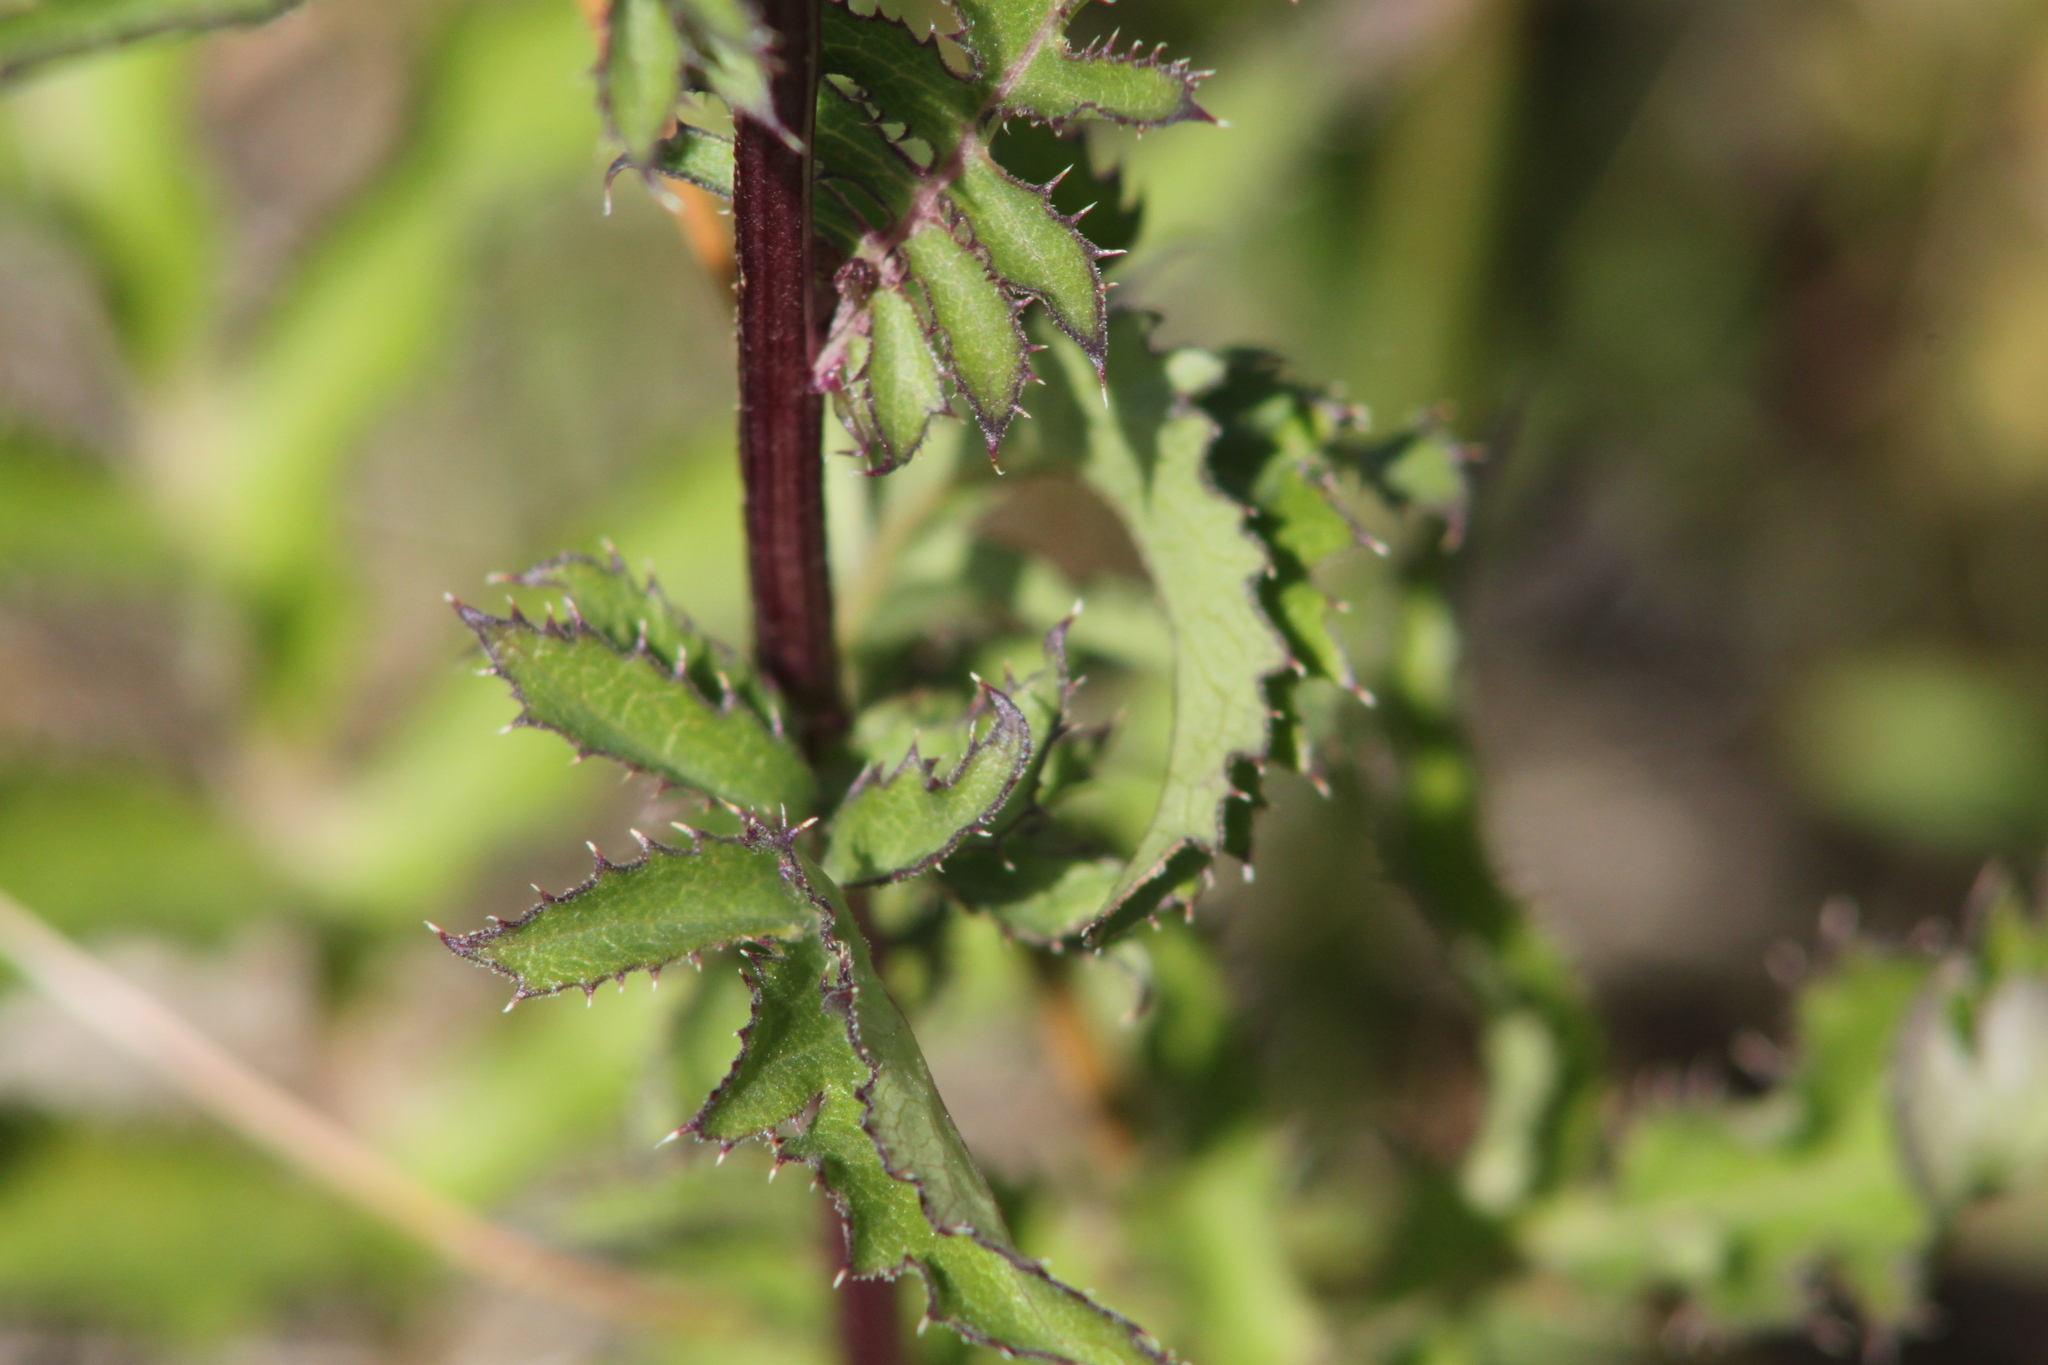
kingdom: Plantae
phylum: Tracheophyta
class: Magnoliopsida
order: Asterales
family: Asteraceae
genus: Serratula
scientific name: Serratula coronata
